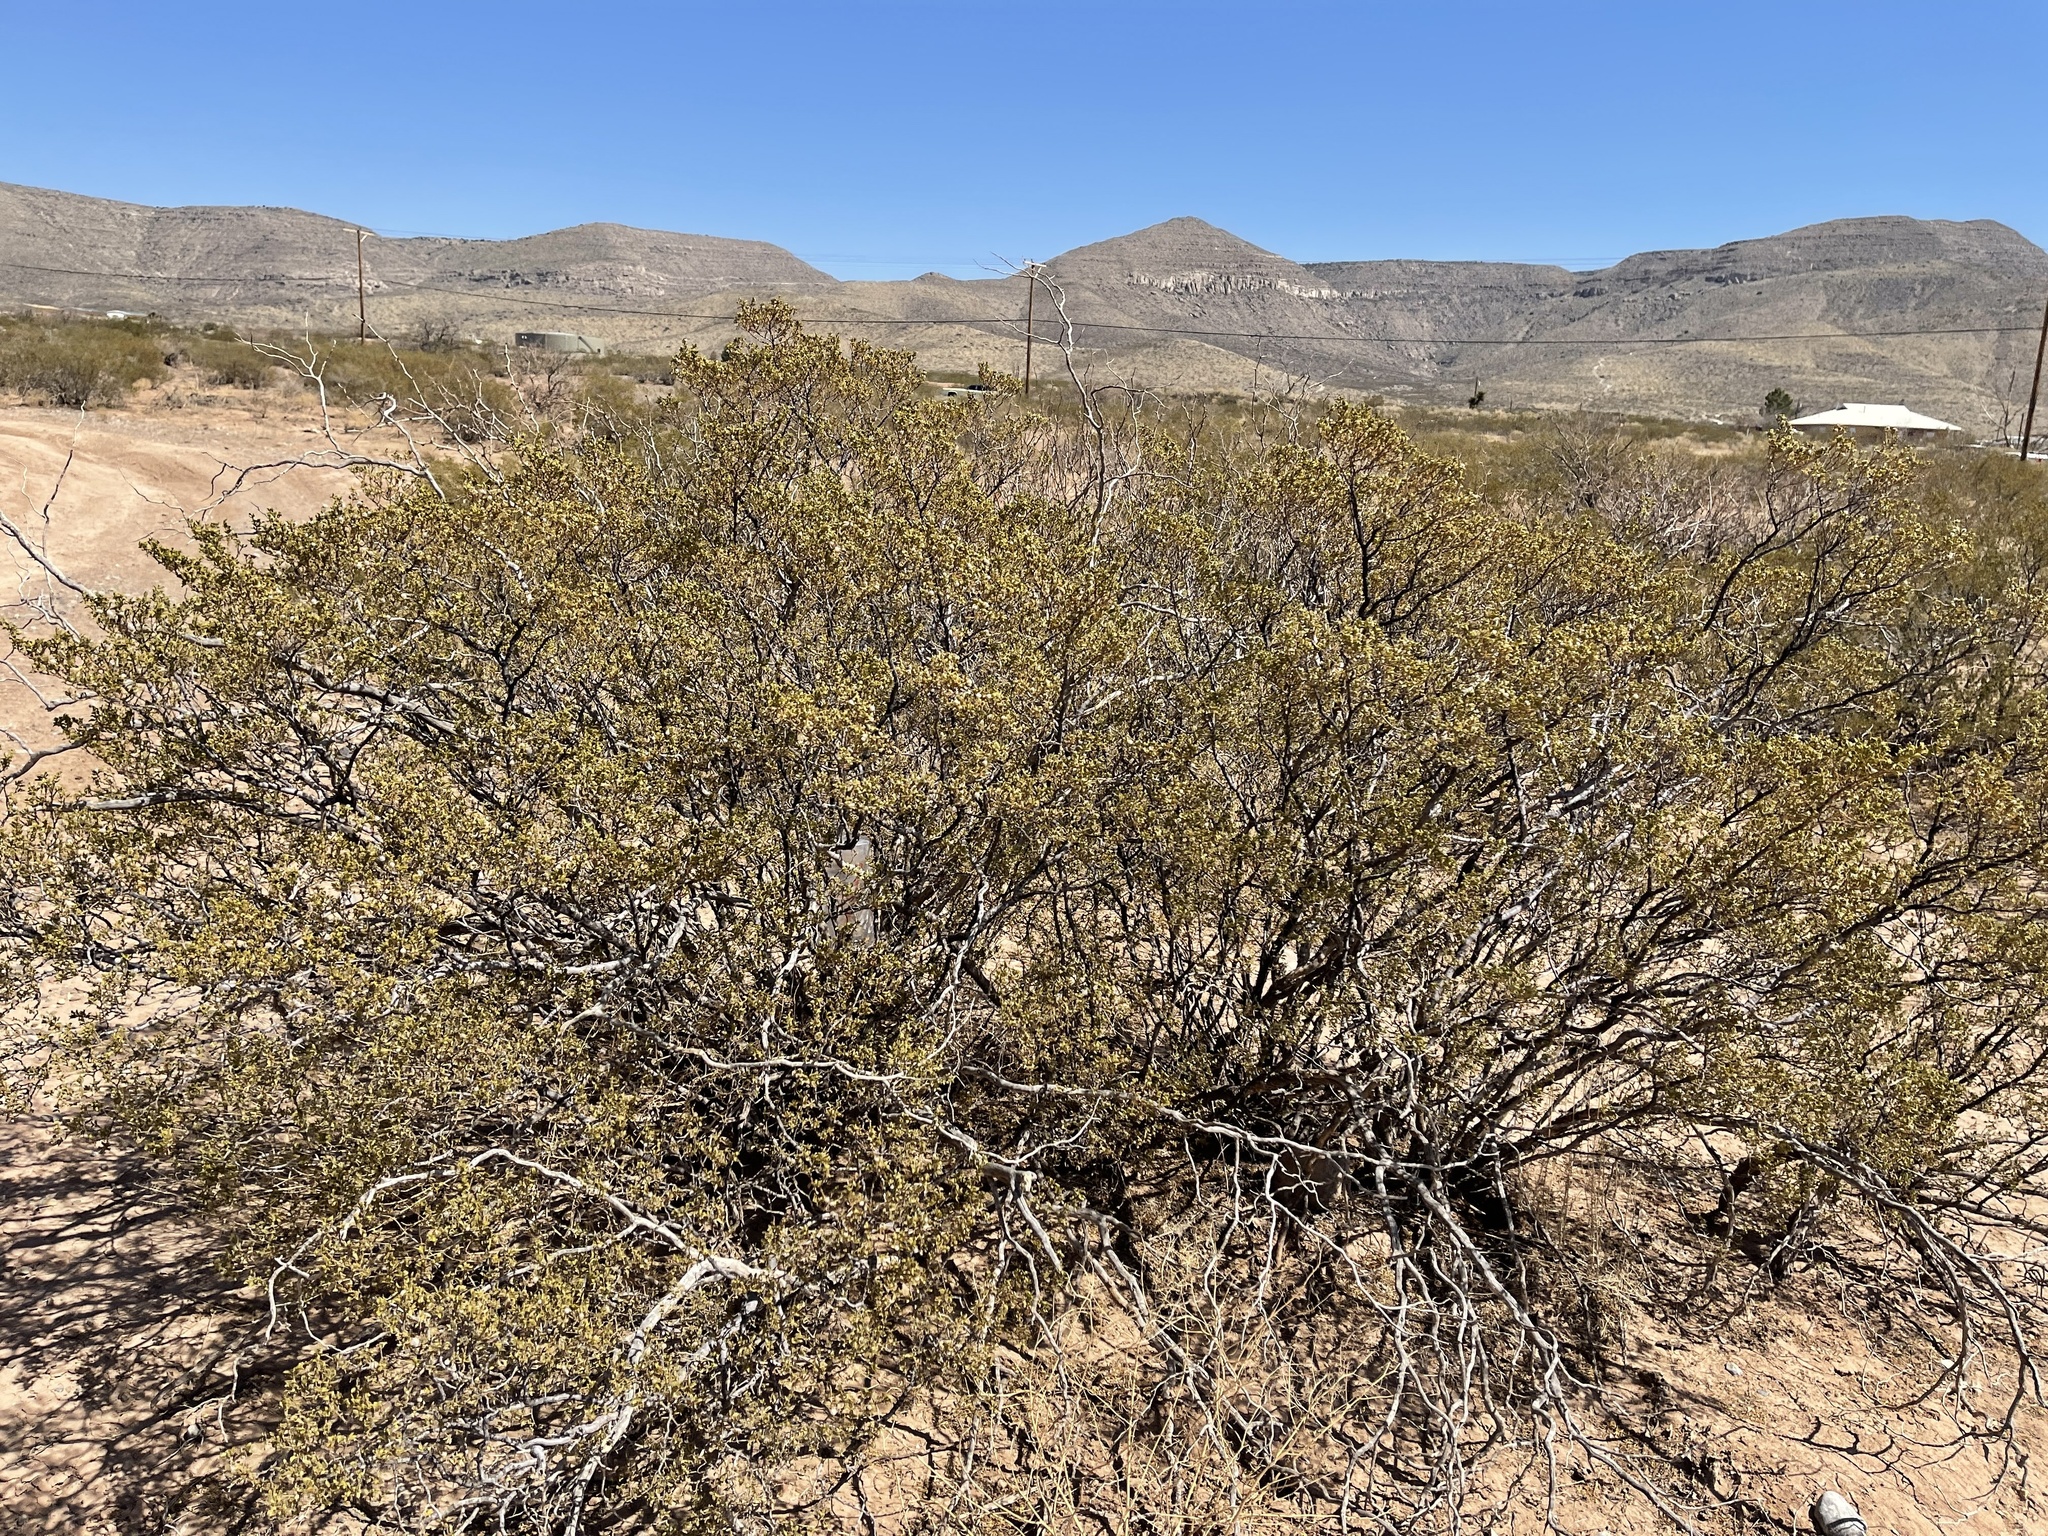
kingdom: Plantae
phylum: Tracheophyta
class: Magnoliopsida
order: Zygophyllales
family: Zygophyllaceae
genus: Larrea
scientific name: Larrea tridentata
